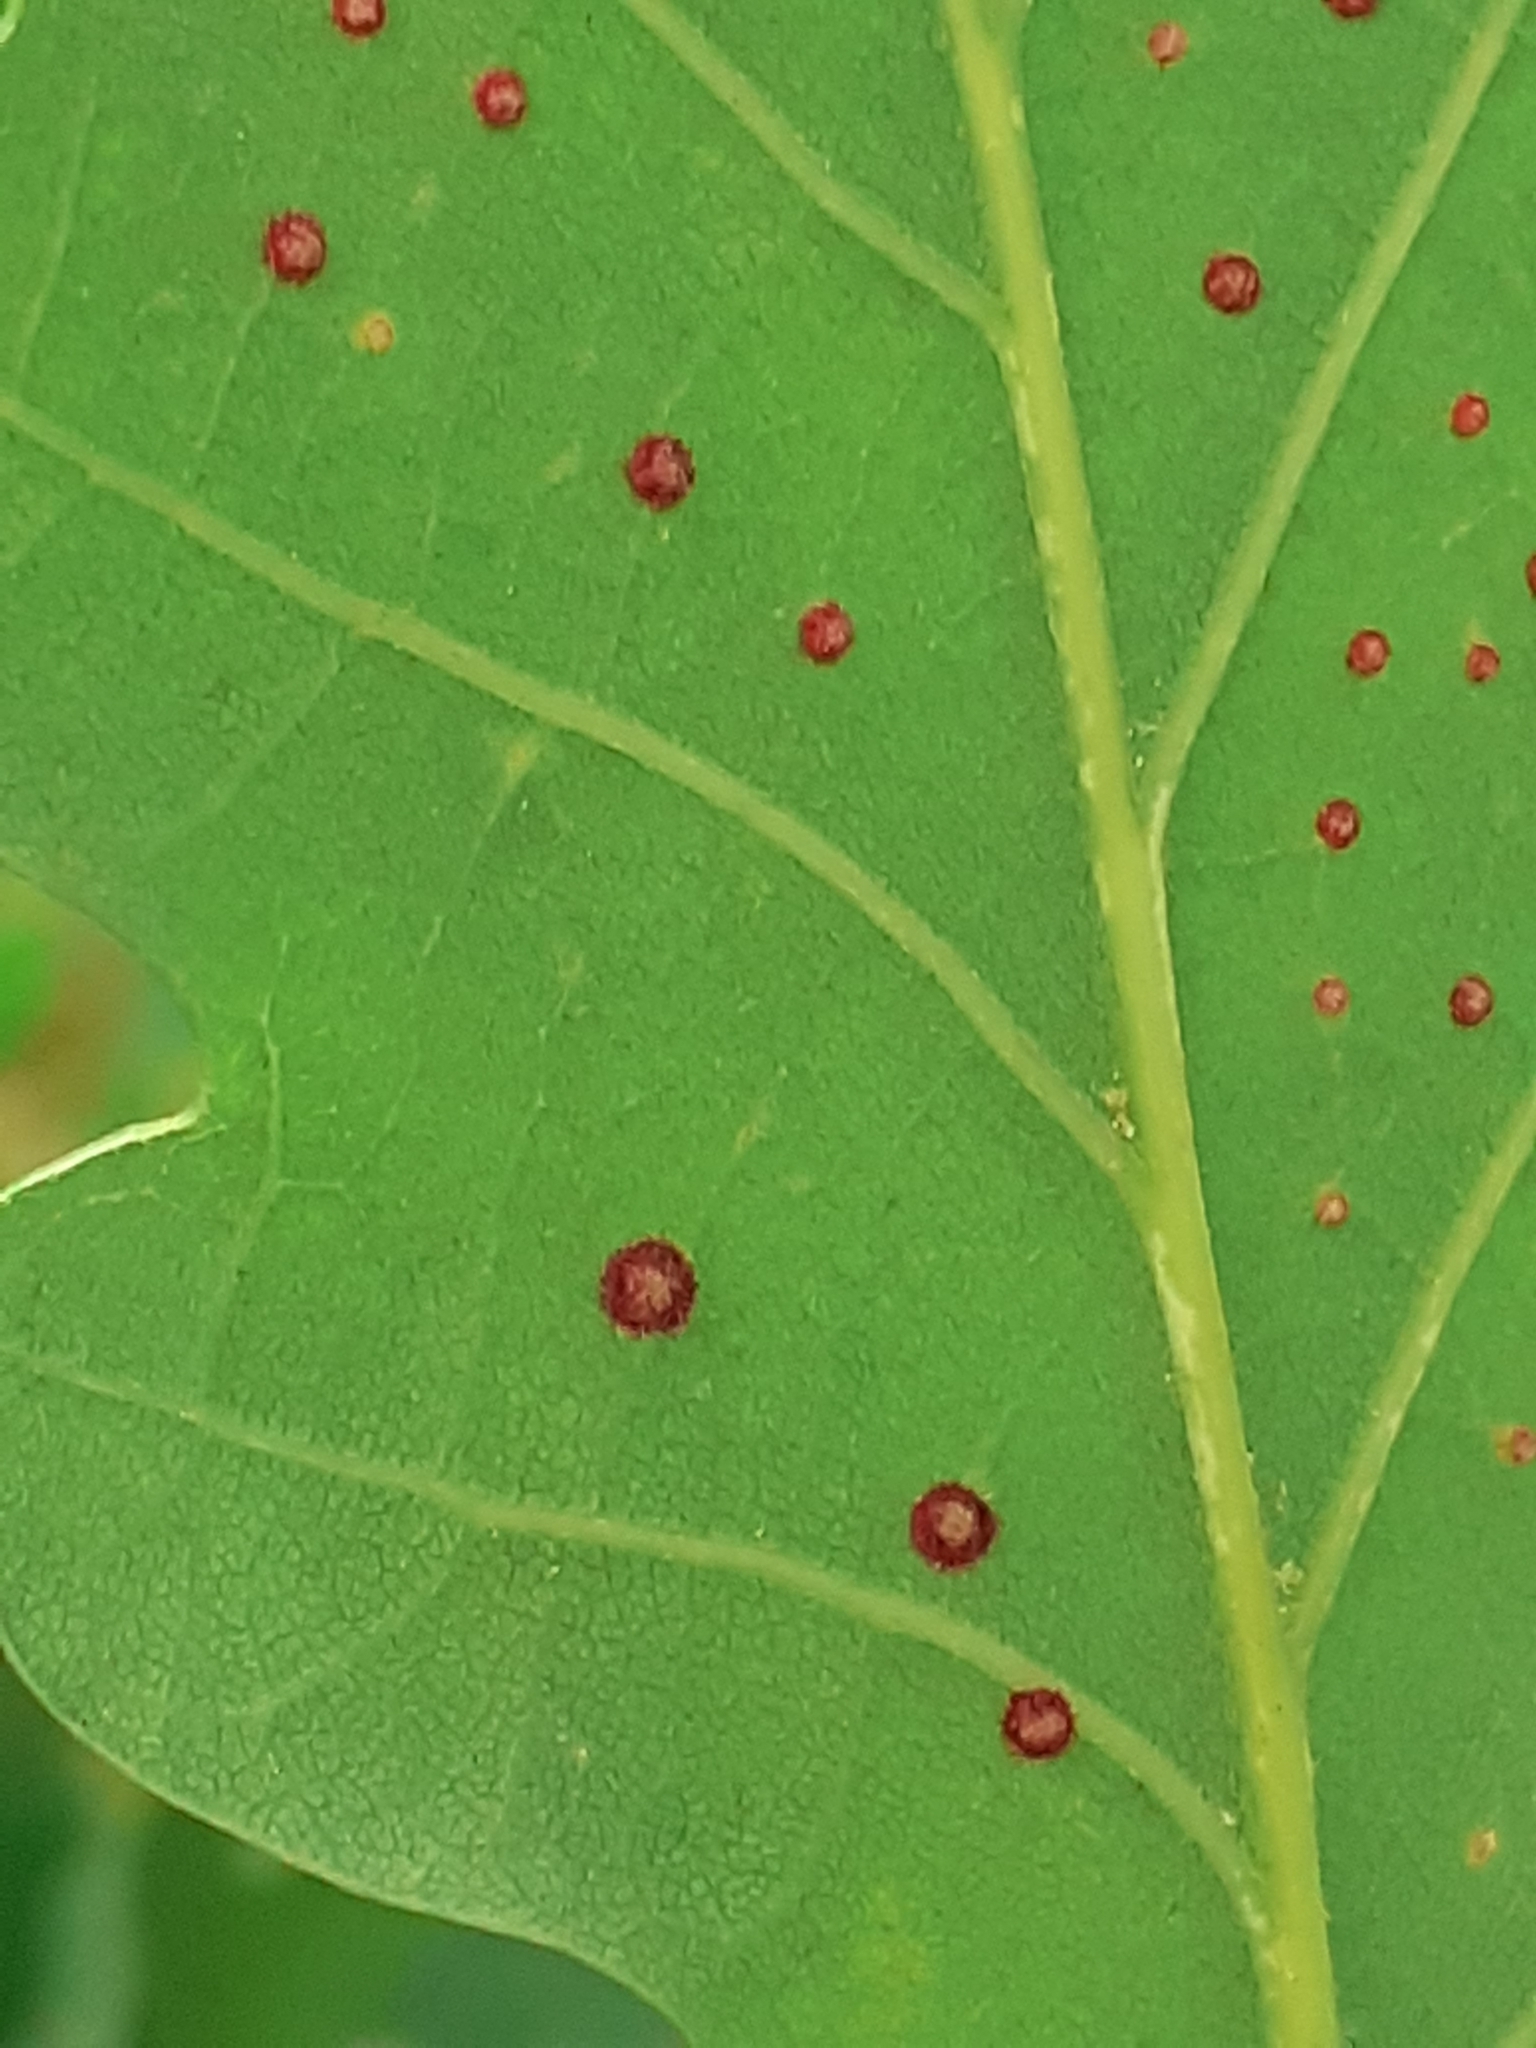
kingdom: Animalia
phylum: Arthropoda
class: Insecta
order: Hymenoptera
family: Cynipidae
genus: Neuroterus
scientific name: Neuroterus quercusbaccarum
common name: Common spangle gall
